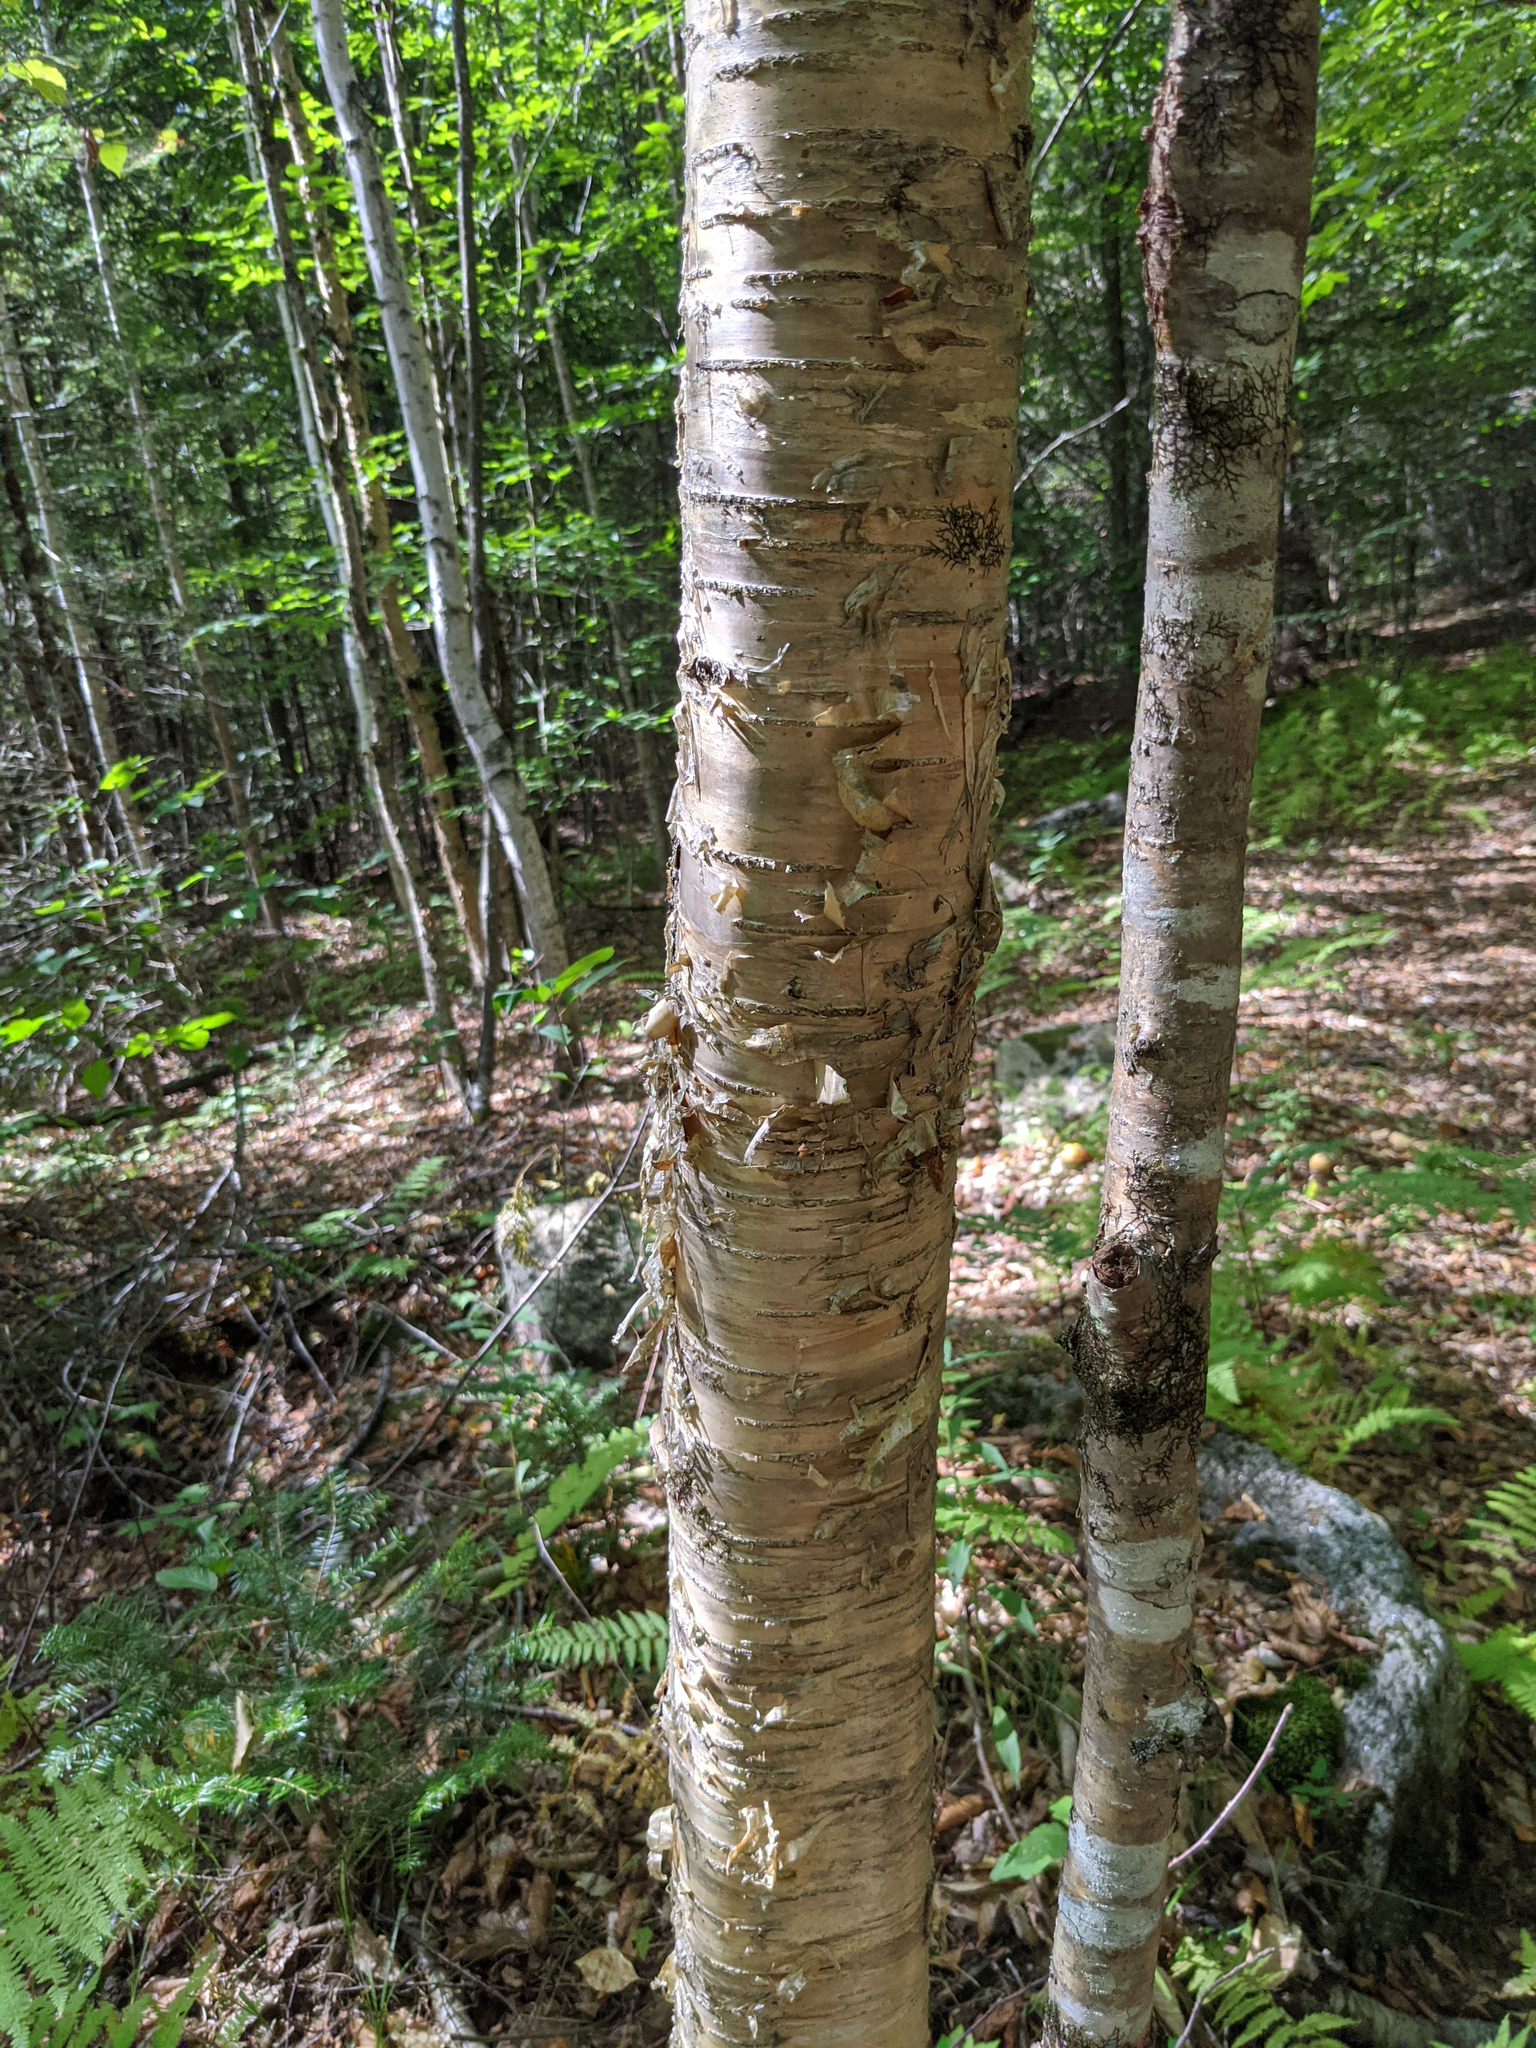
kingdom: Plantae
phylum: Tracheophyta
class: Magnoliopsida
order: Fagales
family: Betulaceae
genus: Betula
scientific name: Betula alleghaniensis
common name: Yellow birch
